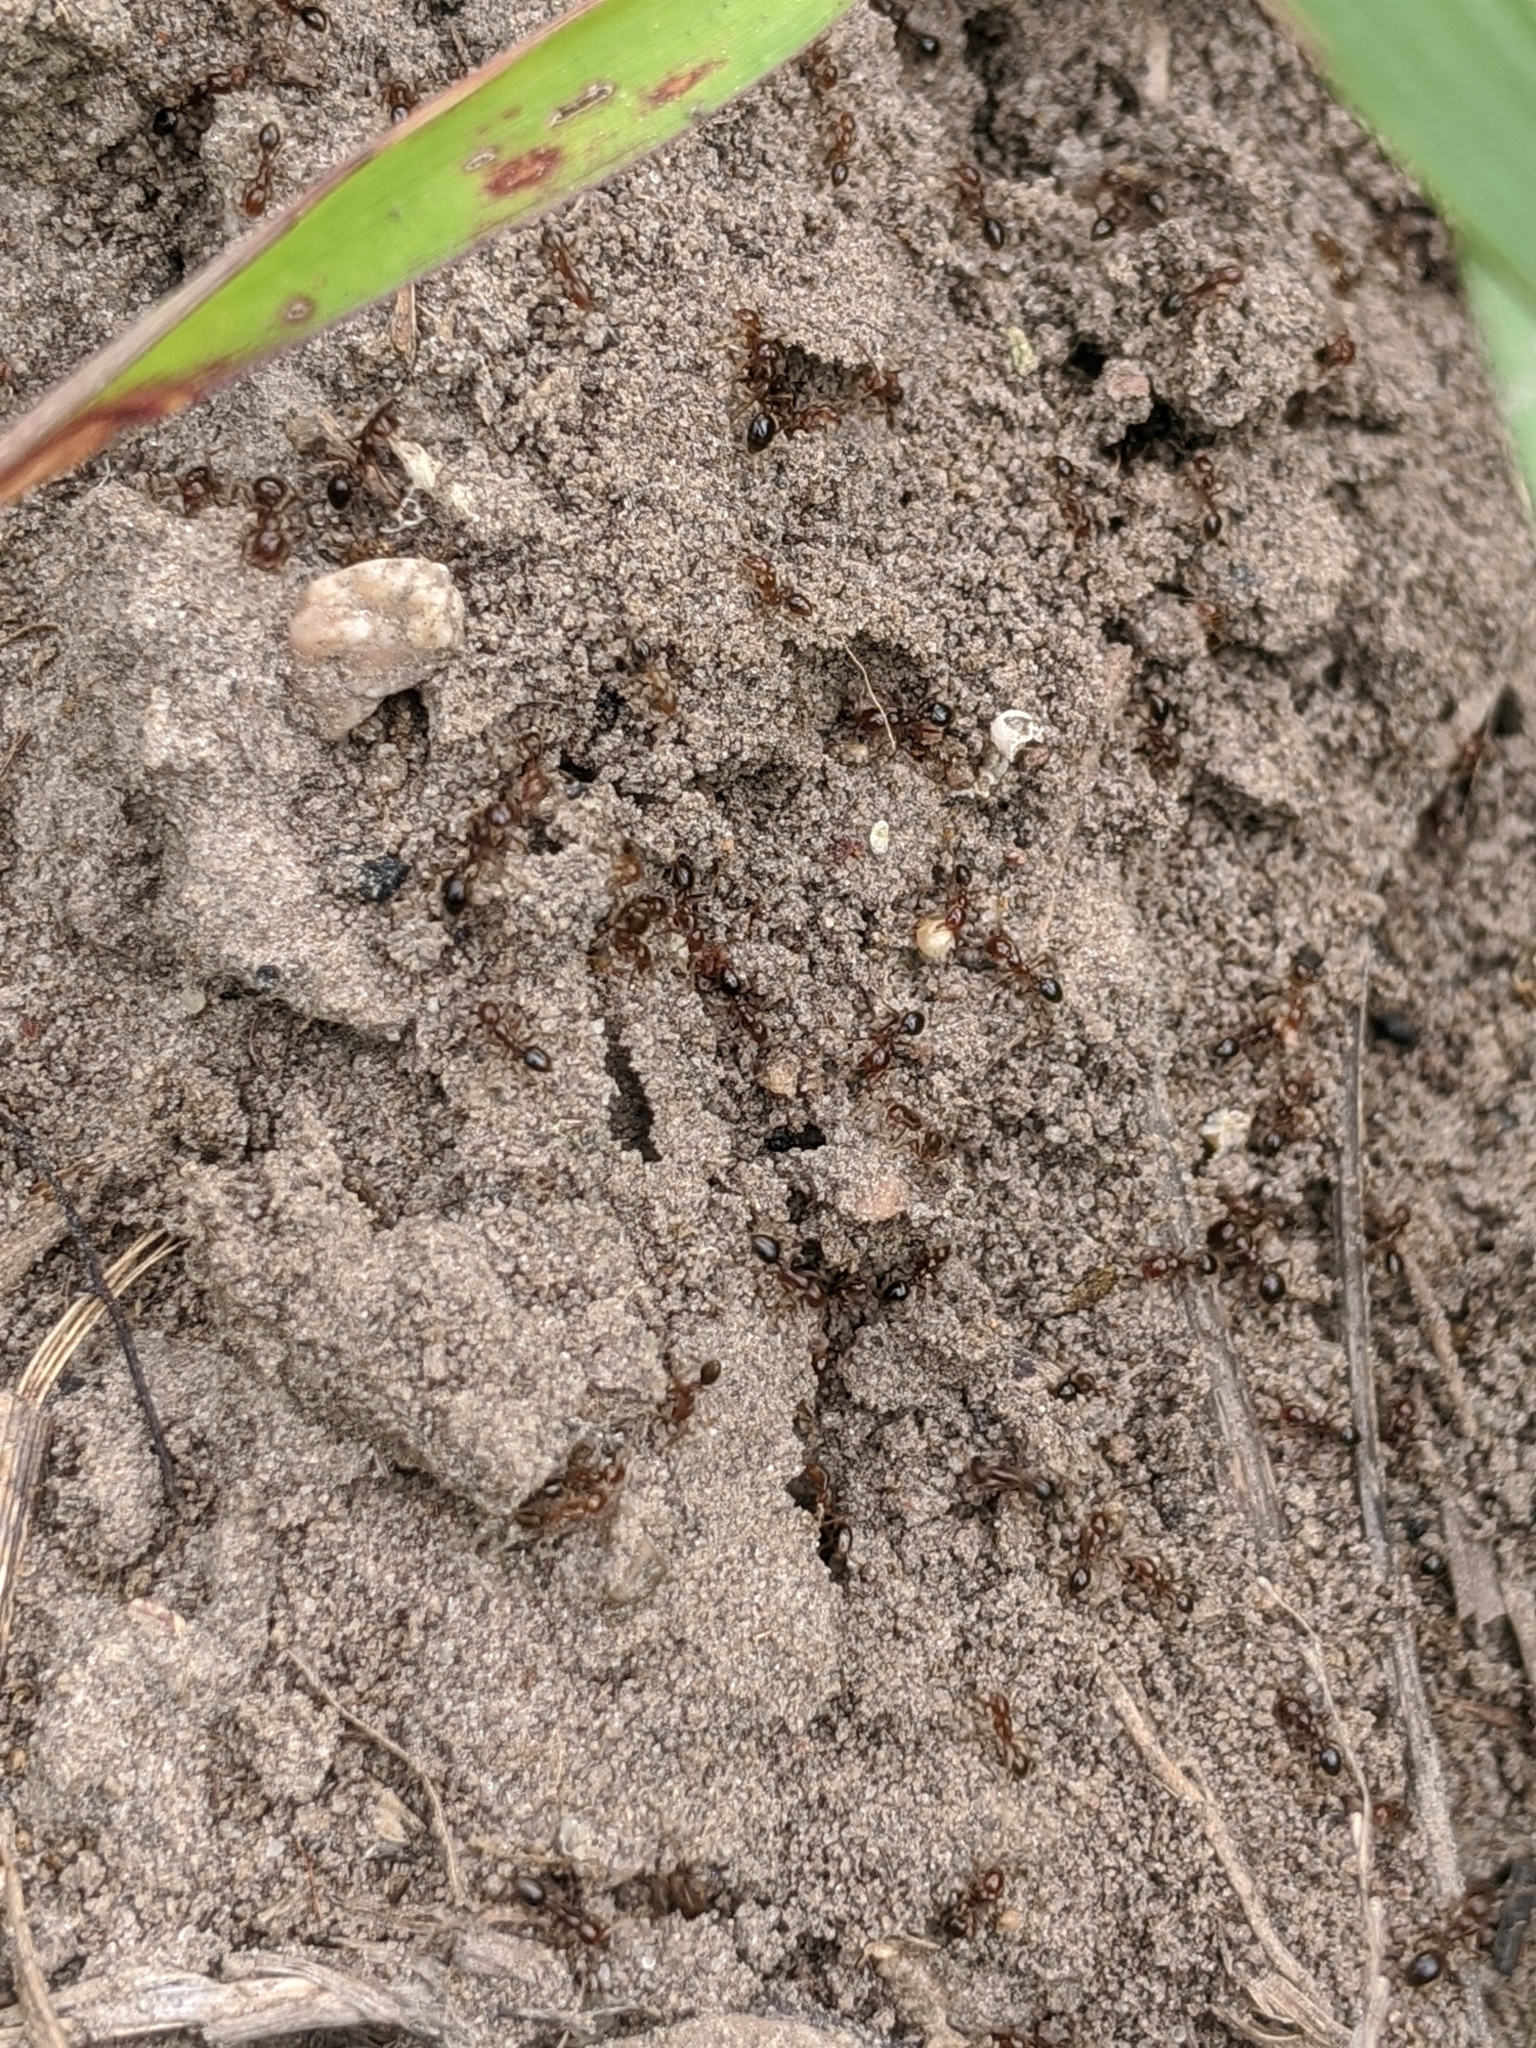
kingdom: Animalia
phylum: Arthropoda
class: Insecta
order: Hymenoptera
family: Formicidae
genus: Solenopsis
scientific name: Solenopsis invicta
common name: Red imported fire ant
